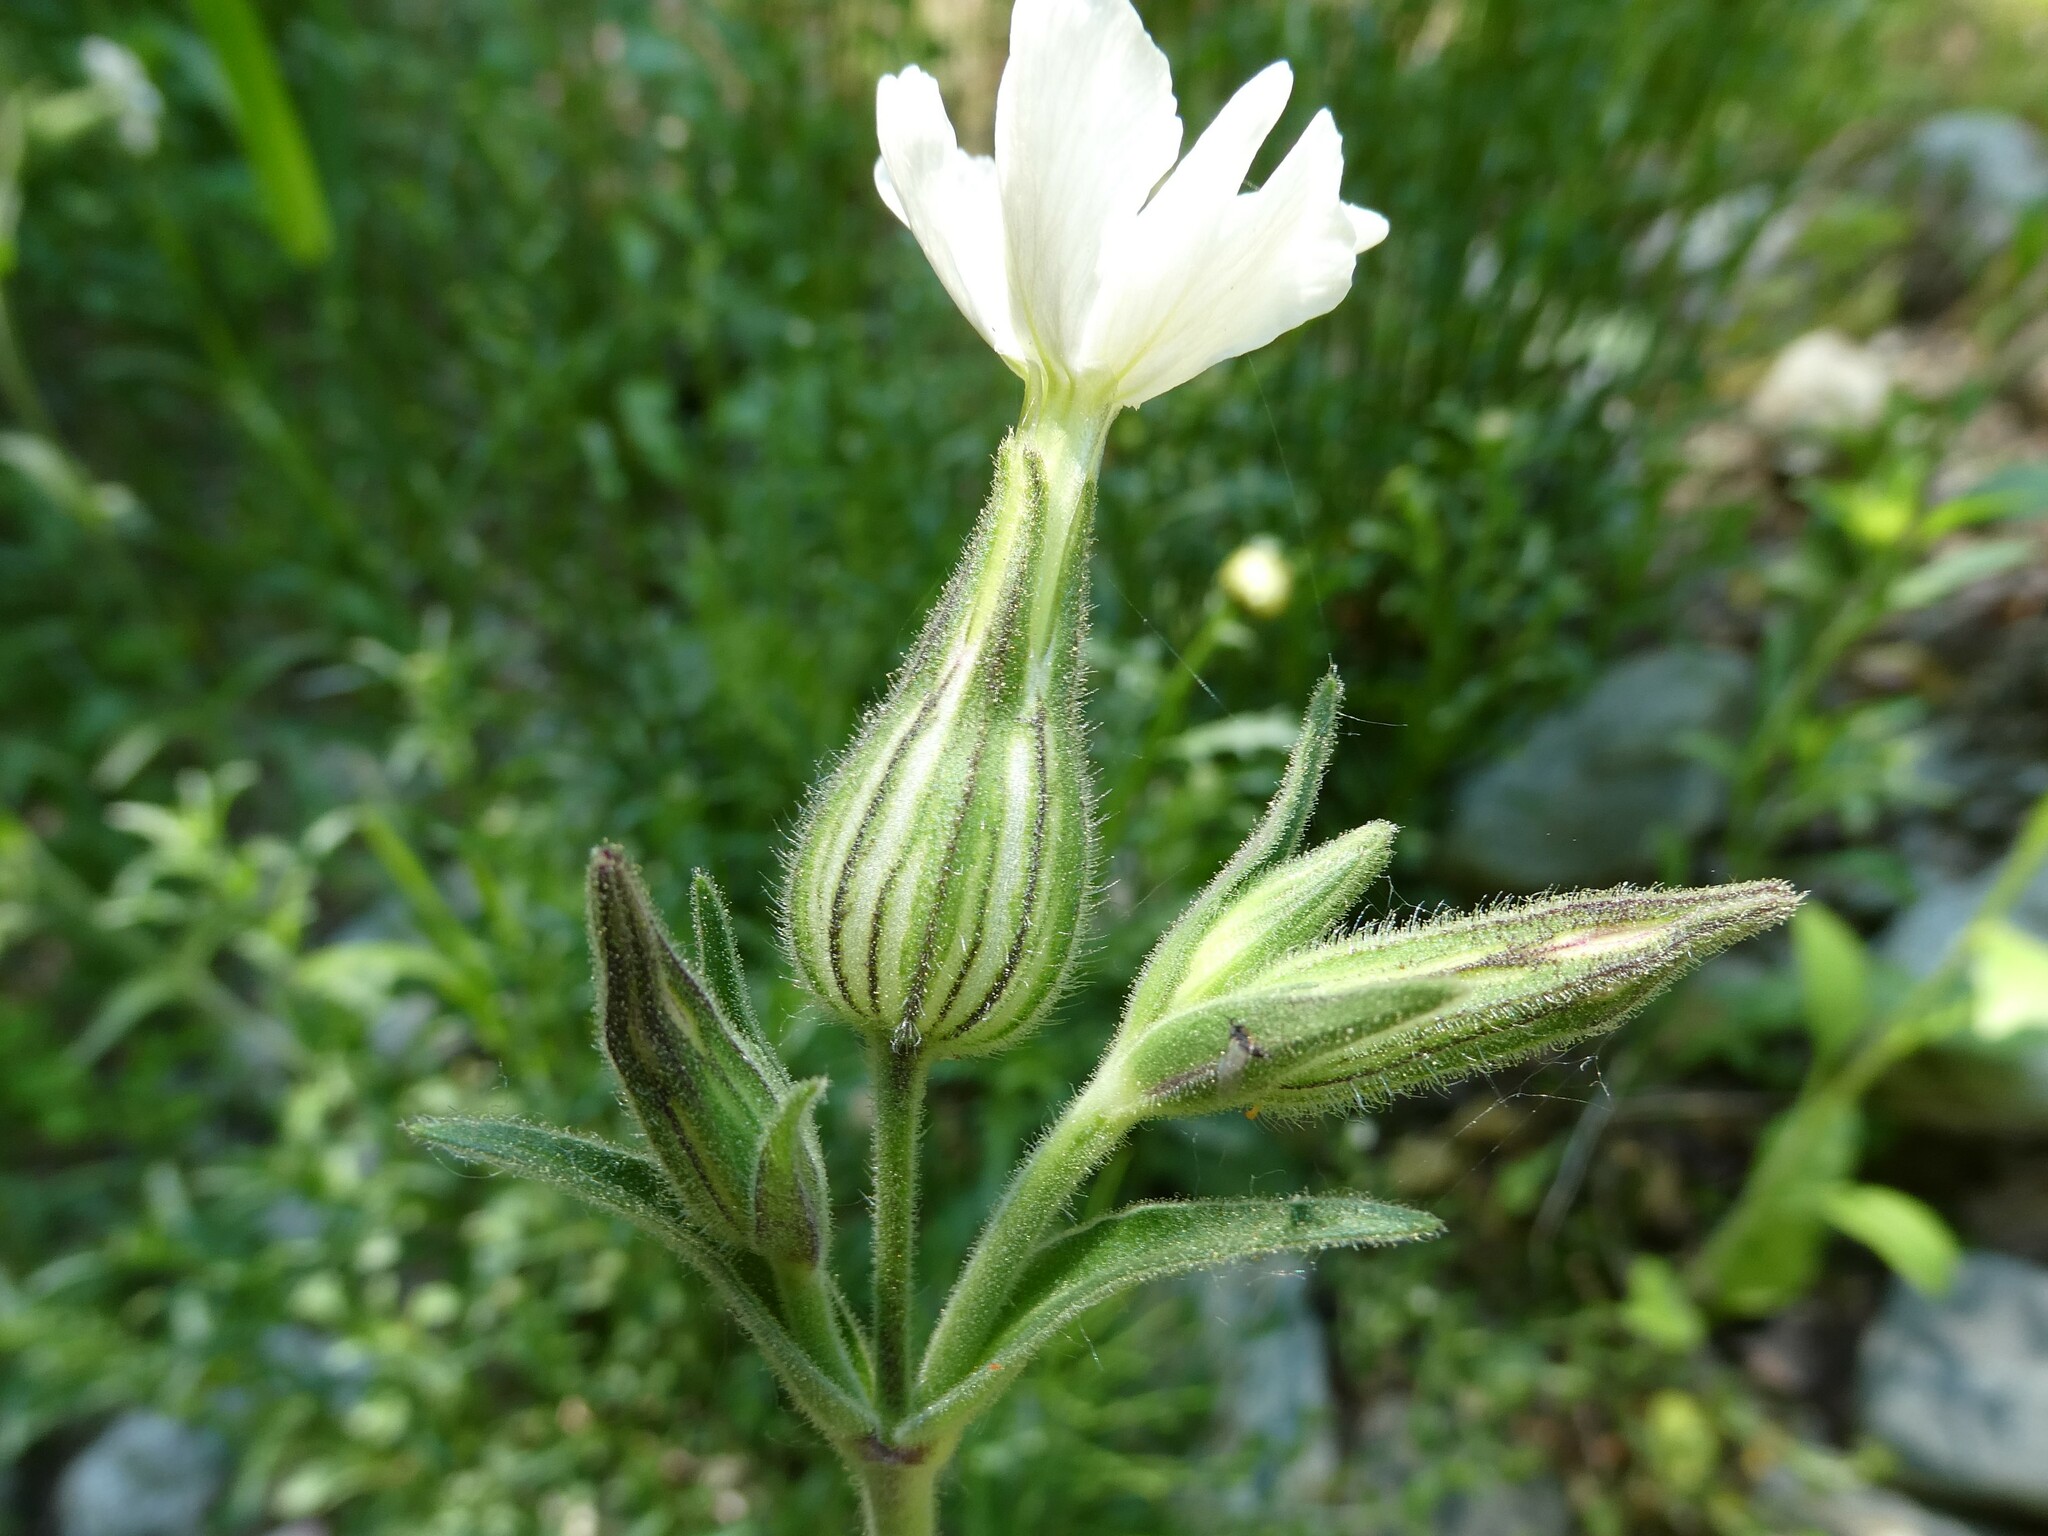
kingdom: Plantae
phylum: Tracheophyta
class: Magnoliopsida
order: Caryophyllales
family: Caryophyllaceae
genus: Silene
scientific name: Silene latifolia
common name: White campion
